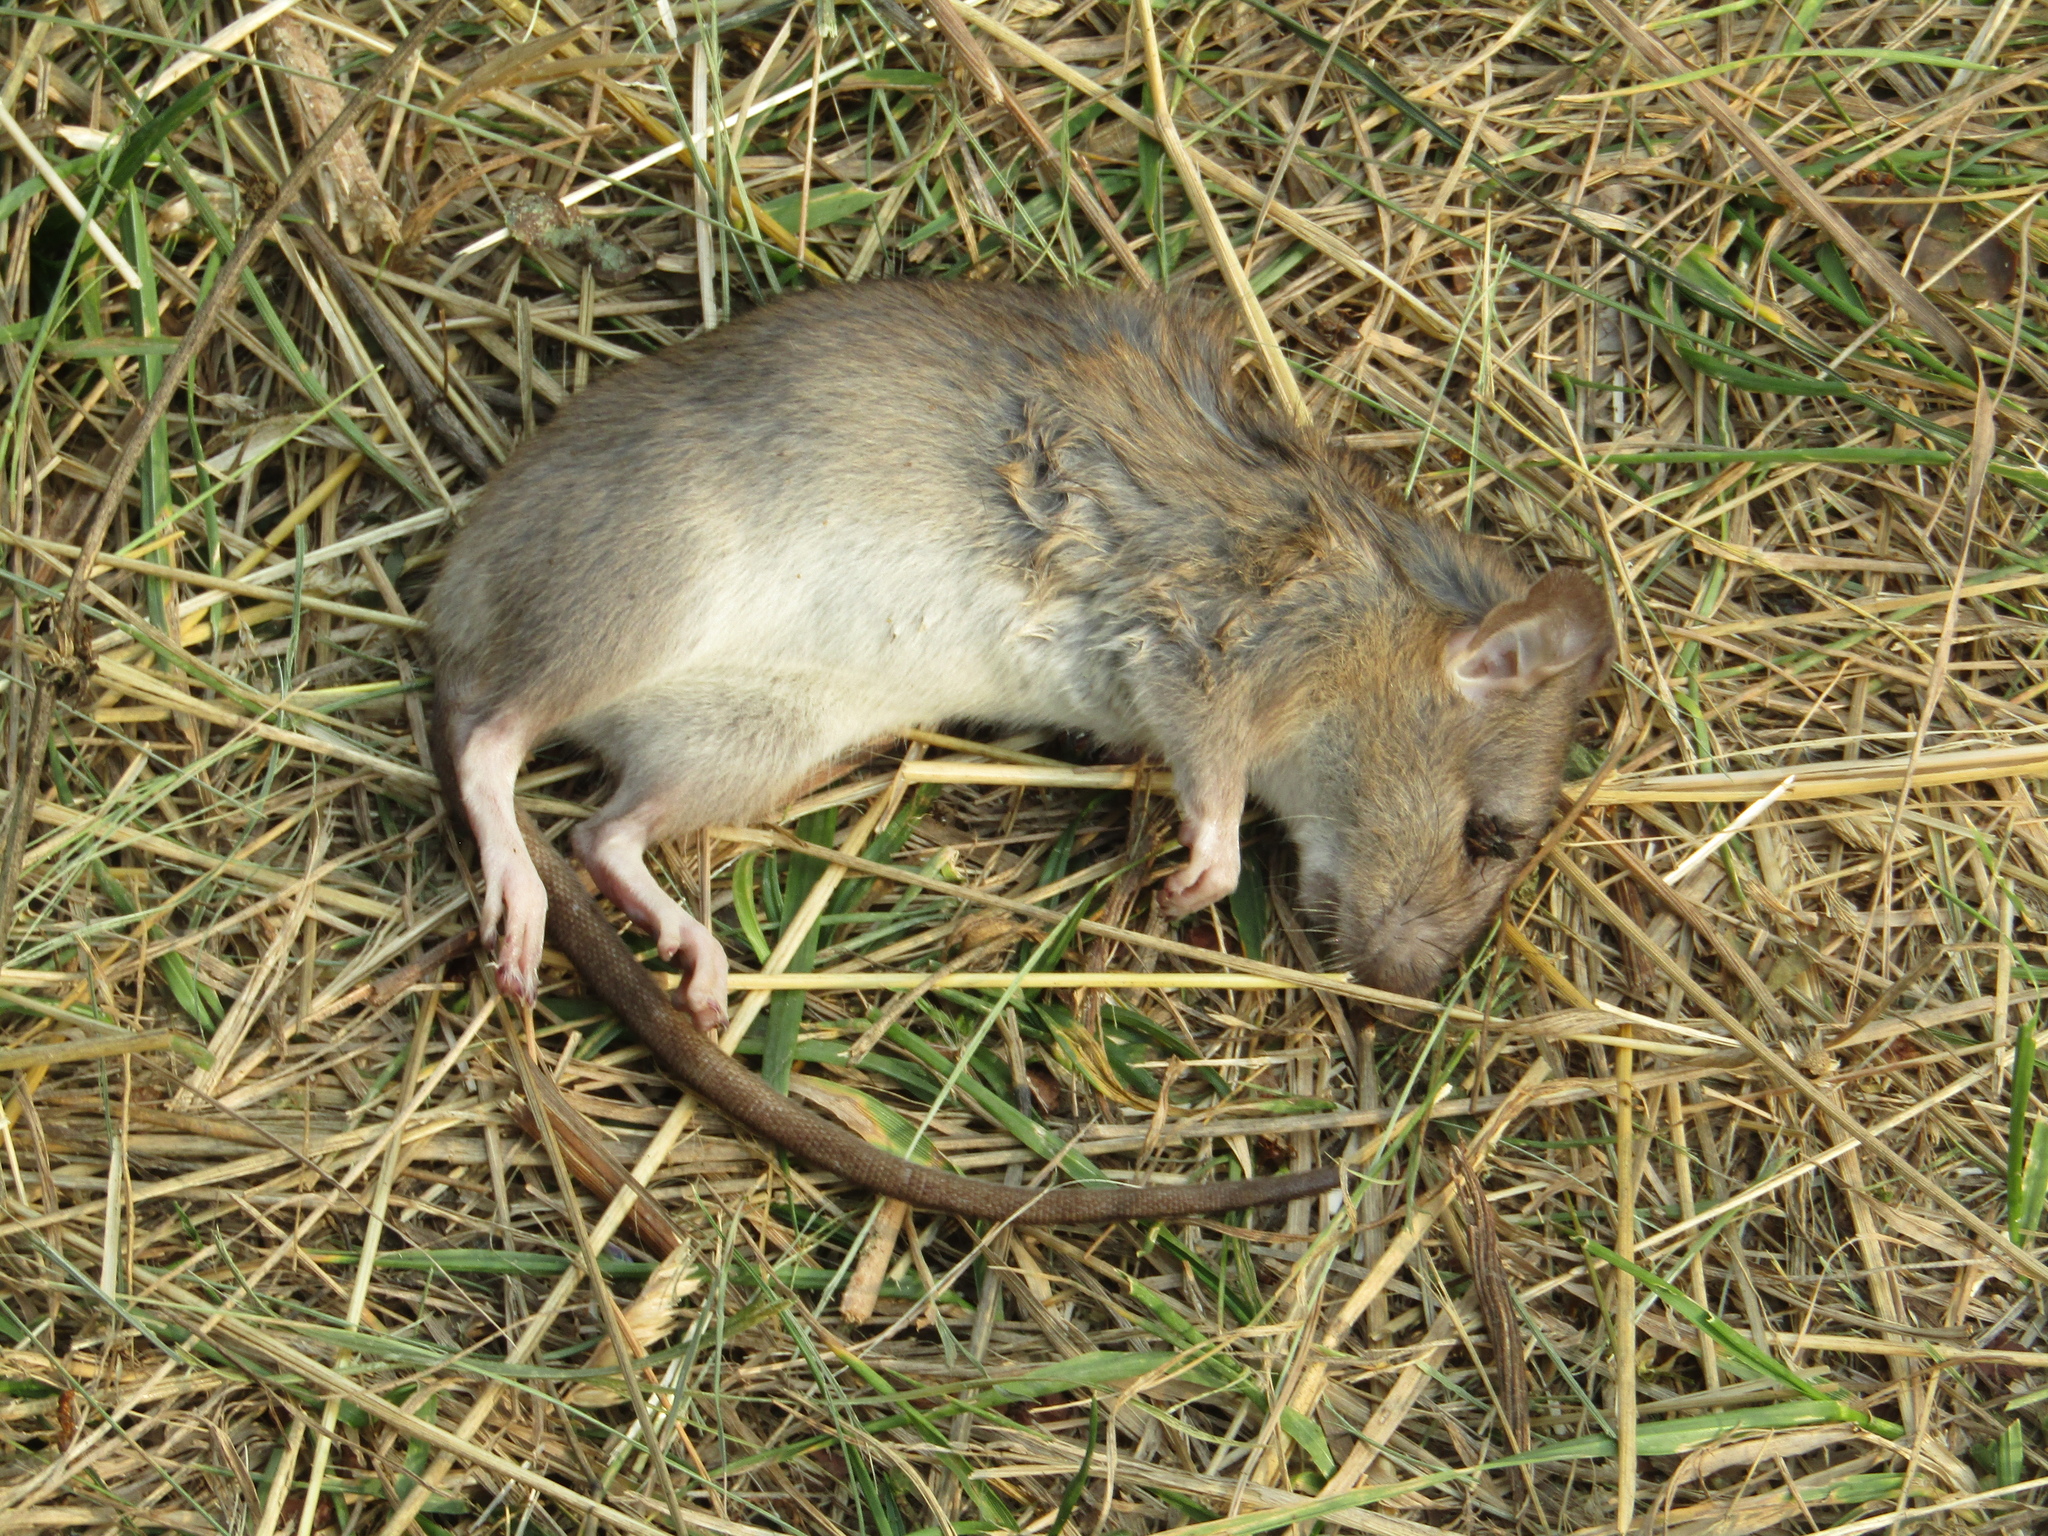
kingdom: Animalia
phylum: Chordata
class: Mammalia
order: Rodentia
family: Muridae
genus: Rattus
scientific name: Rattus norvegicus
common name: Brown rat
